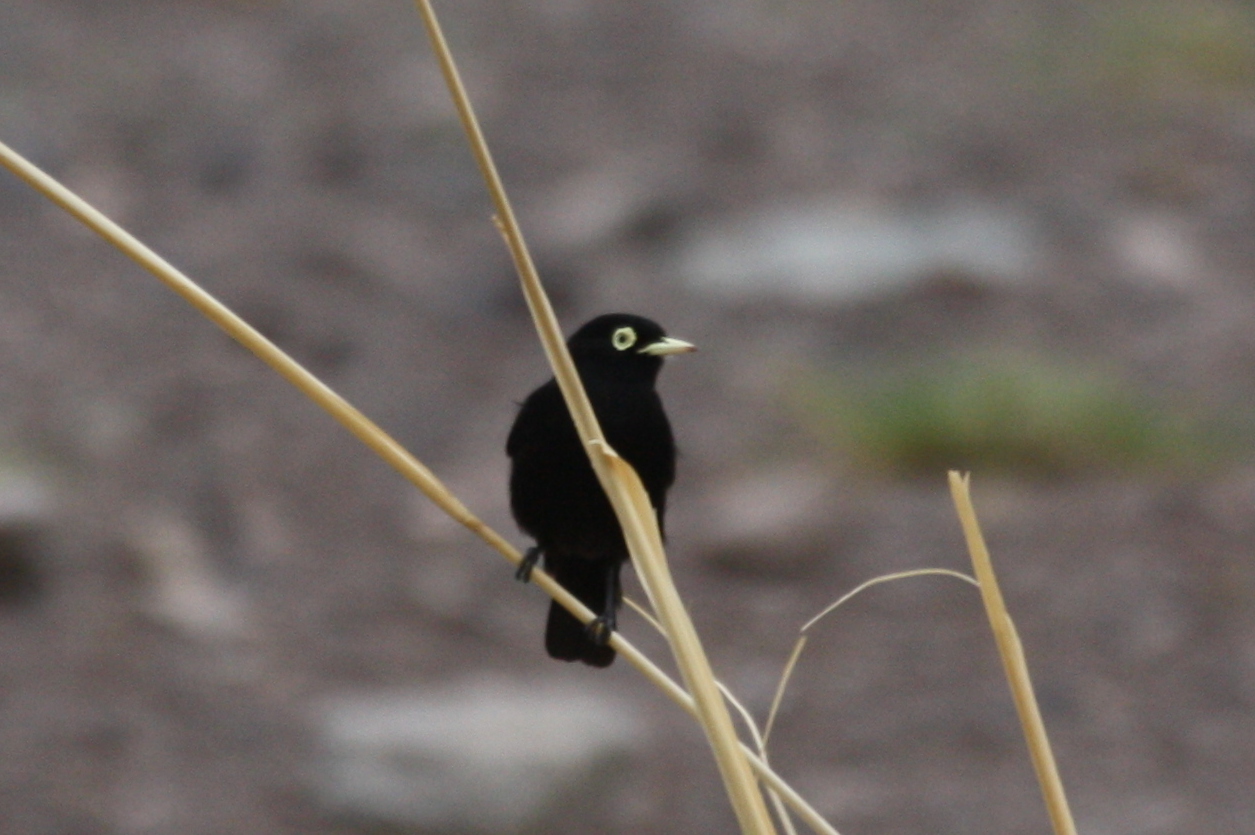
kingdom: Animalia
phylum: Chordata
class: Aves
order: Passeriformes
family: Tyrannidae
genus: Hymenops
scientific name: Hymenops perspicillatus
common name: Spectacled tyrant
